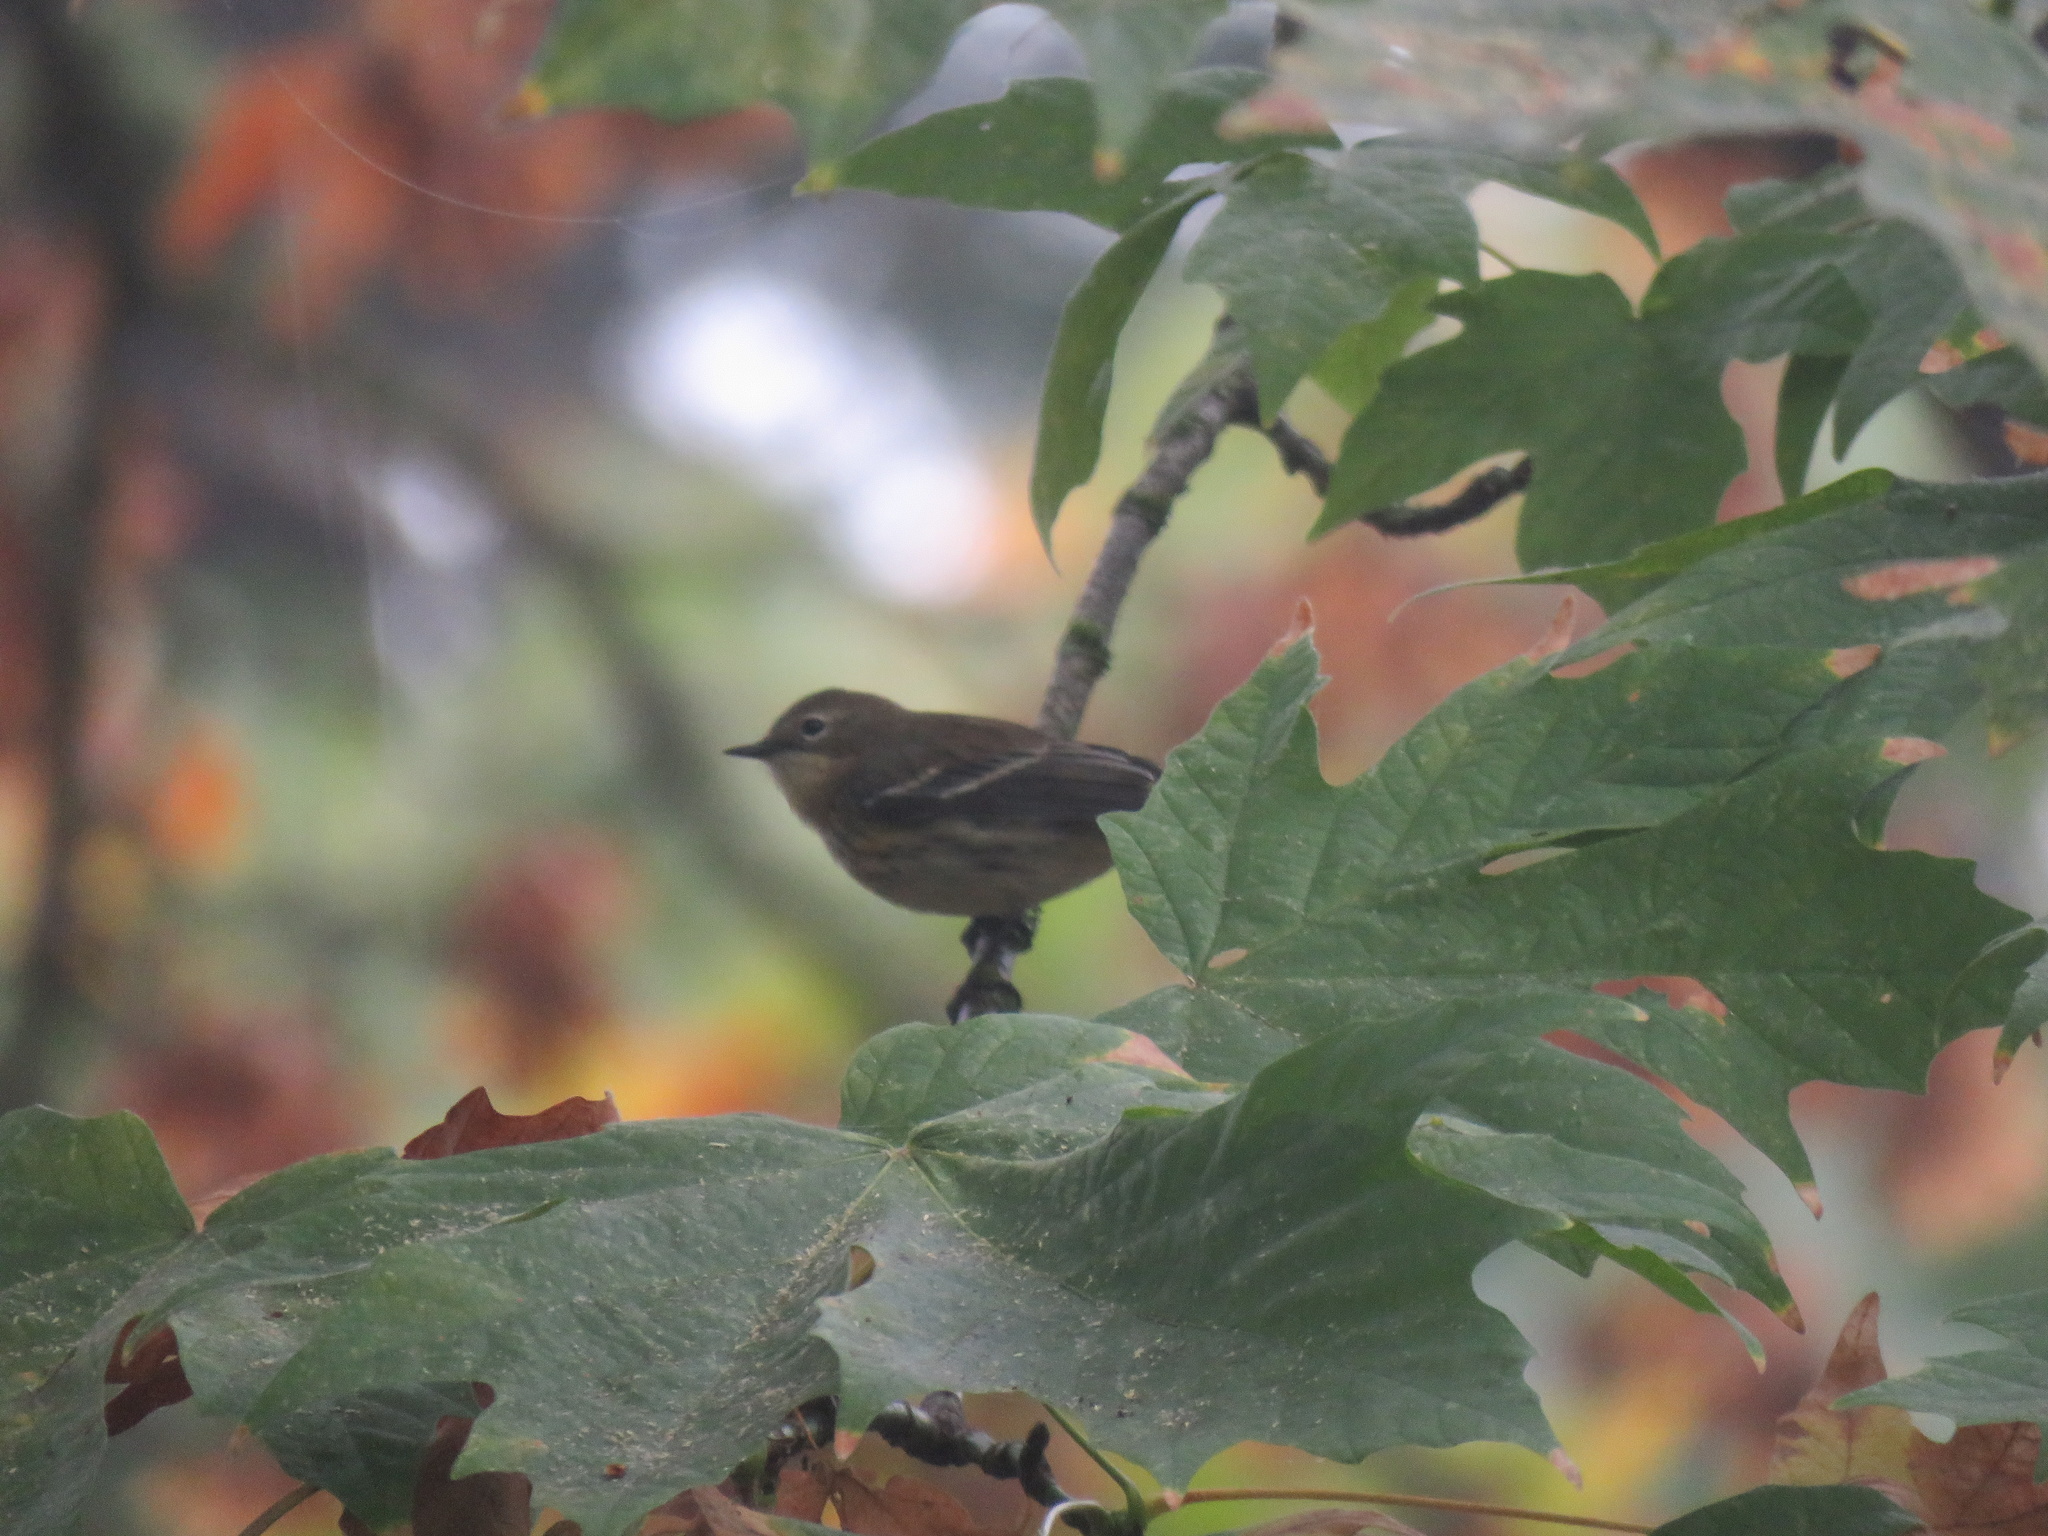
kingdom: Animalia
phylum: Chordata
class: Aves
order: Passeriformes
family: Parulidae
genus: Setophaga
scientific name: Setophaga coronata
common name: Myrtle warbler
